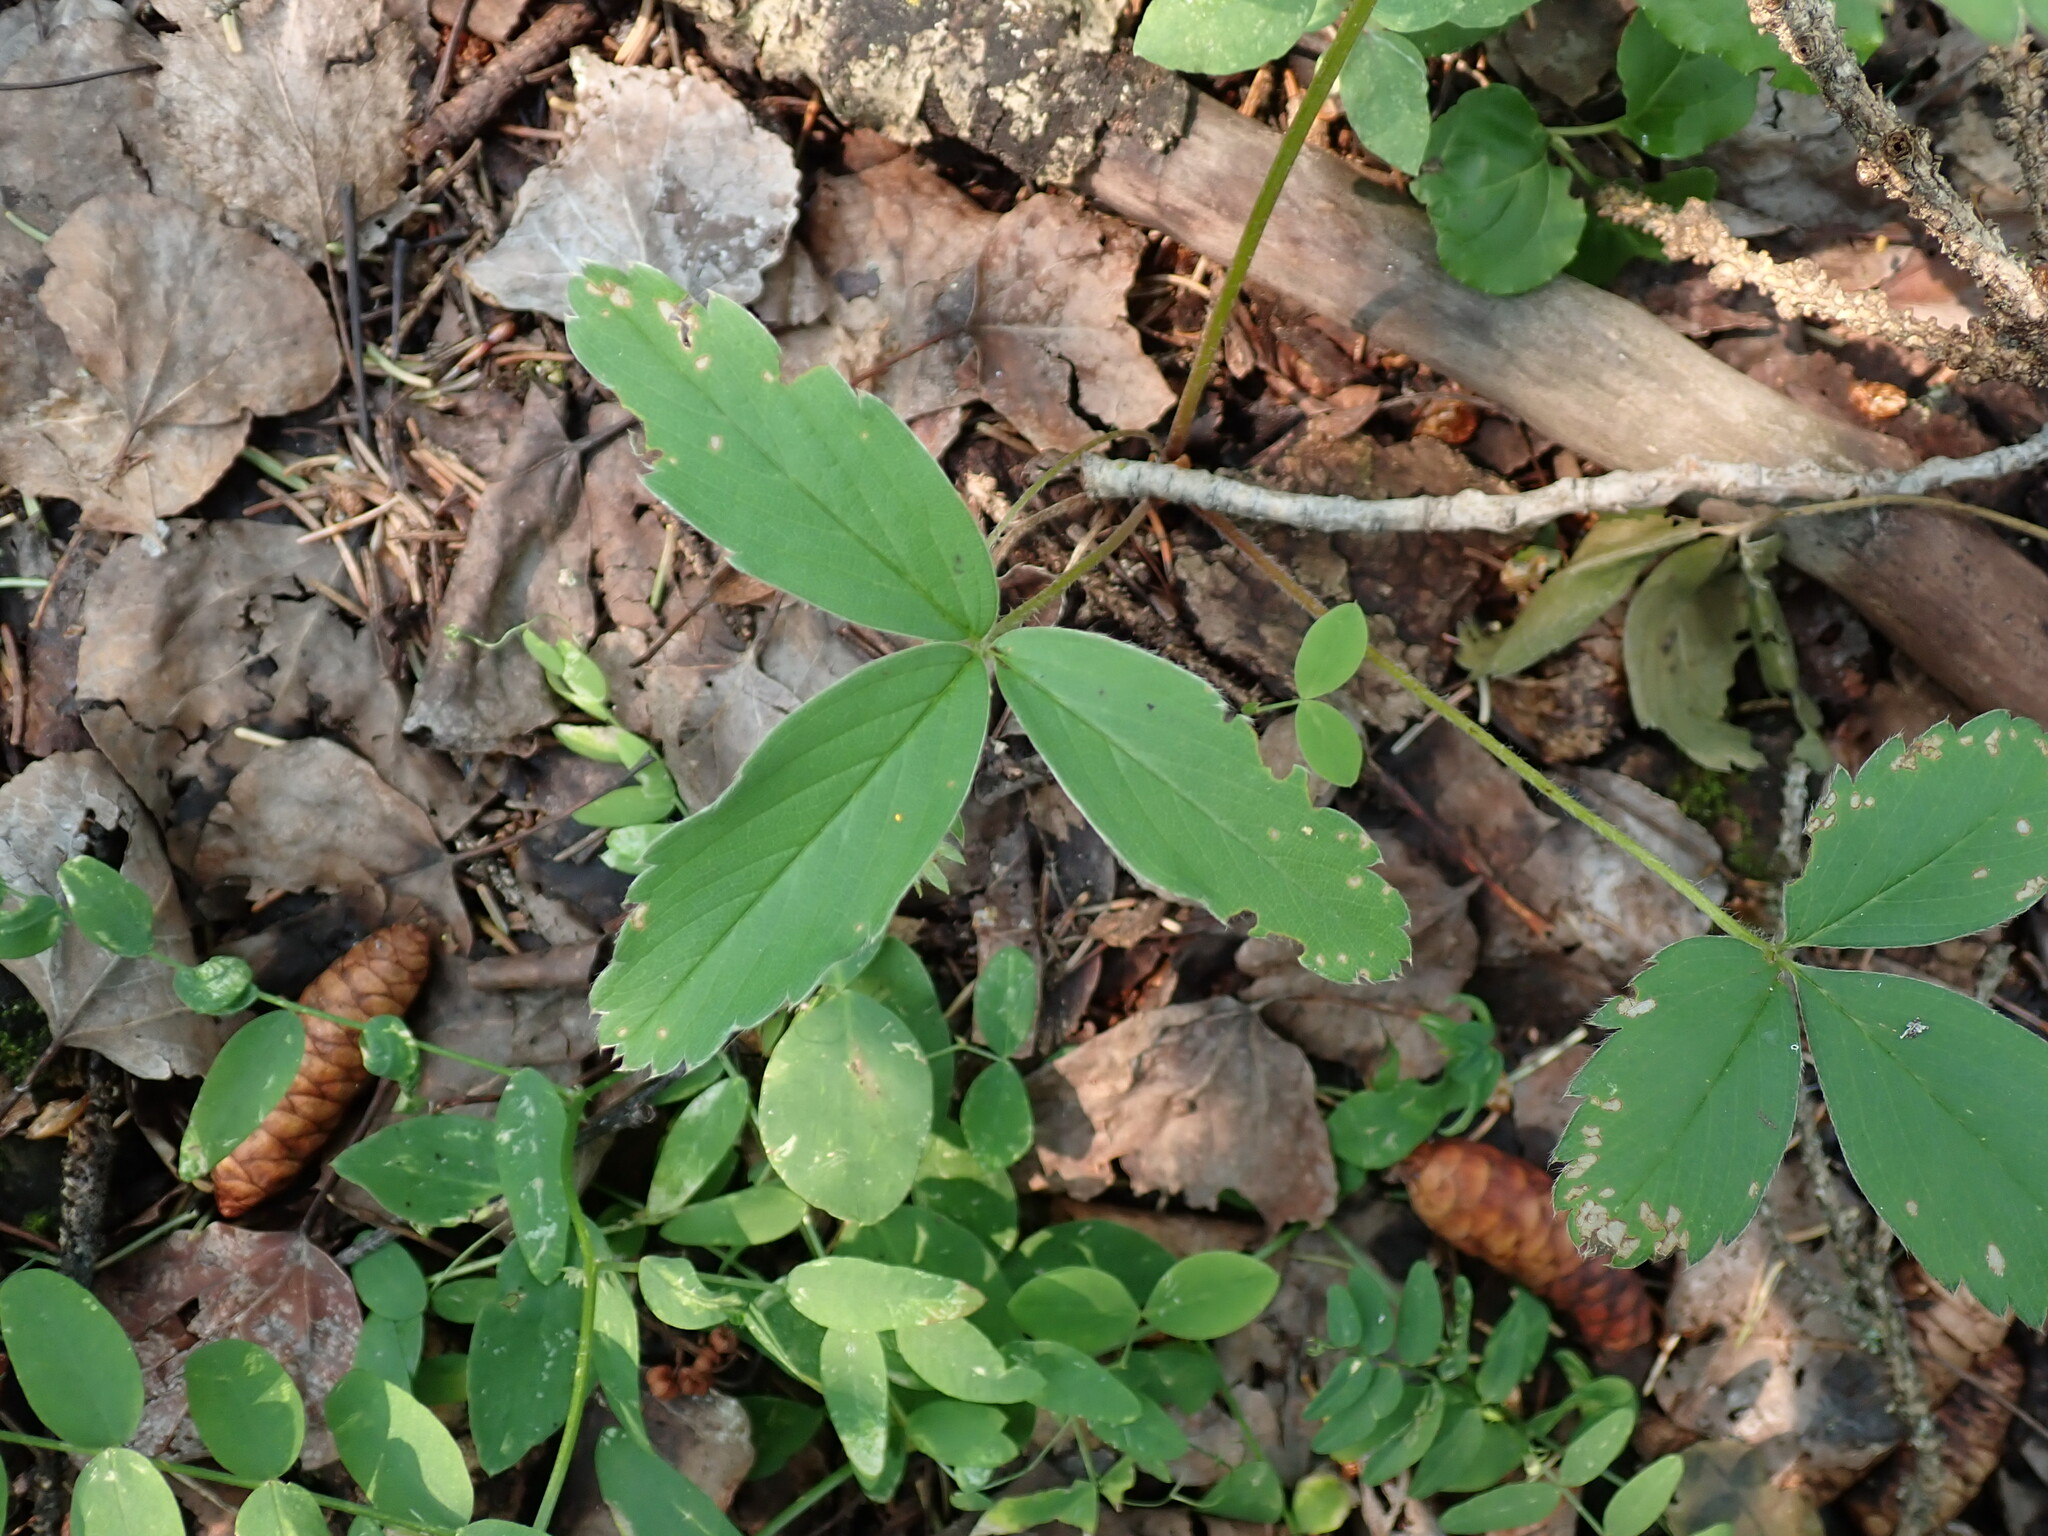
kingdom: Plantae
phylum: Tracheophyta
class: Magnoliopsida
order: Rosales
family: Rosaceae
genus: Fragaria
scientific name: Fragaria virginiana
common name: Thickleaved wild strawberry
